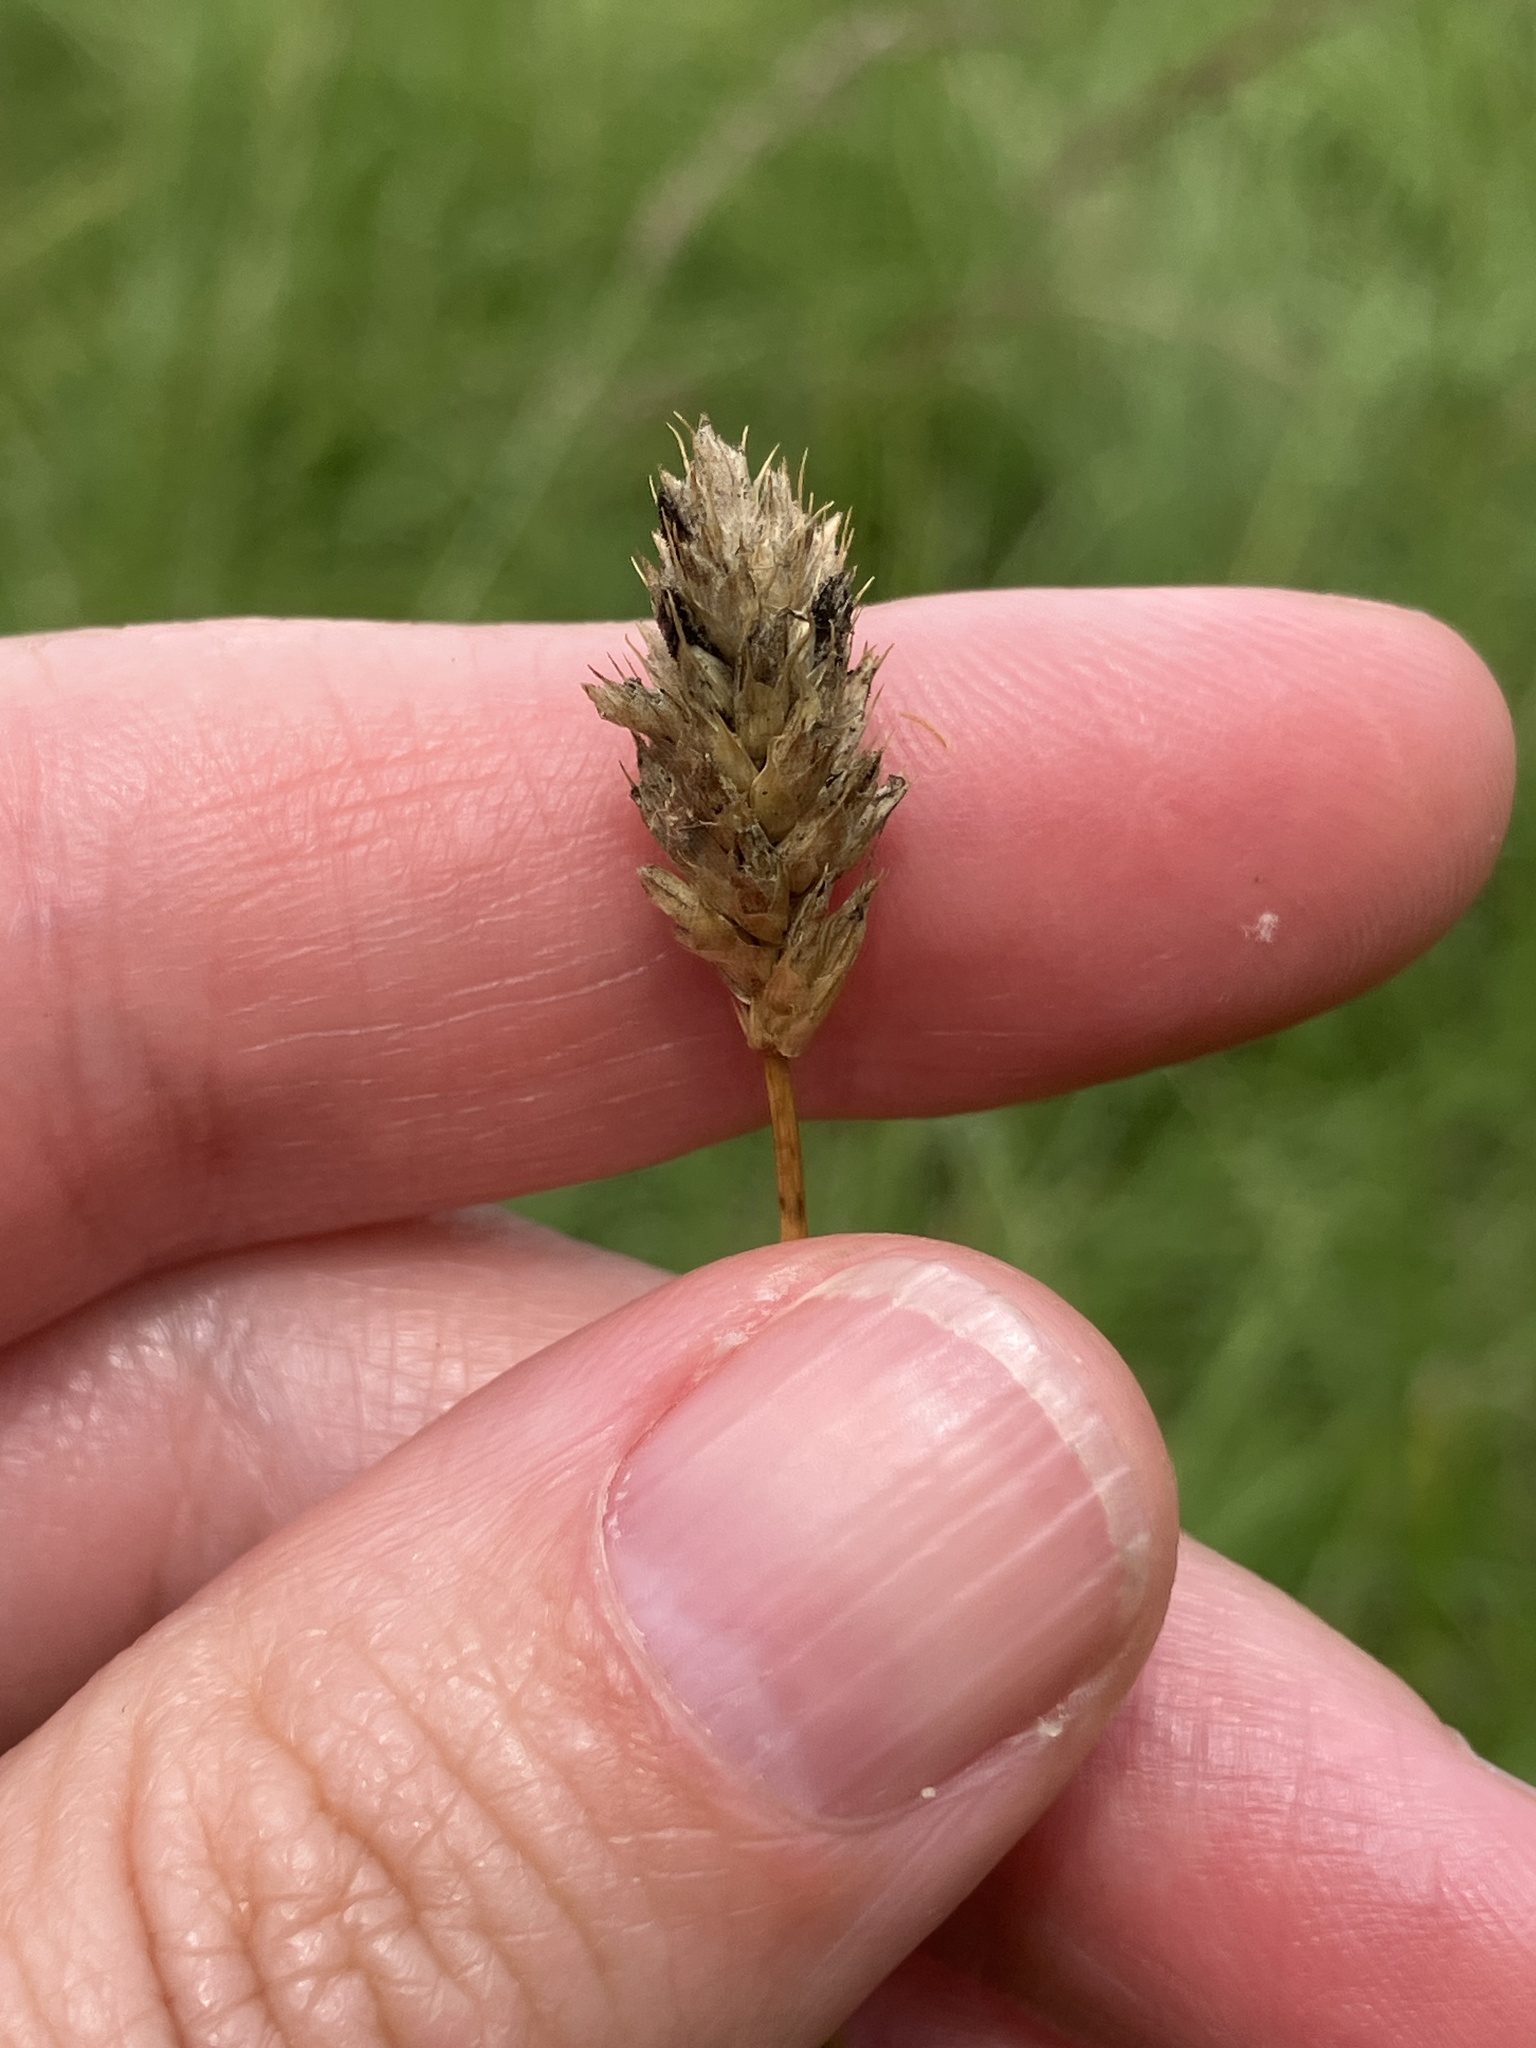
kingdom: Plantae
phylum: Tracheophyta
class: Liliopsida
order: Poales
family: Poaceae
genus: Sesleria
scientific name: Sesleria uliginosa
